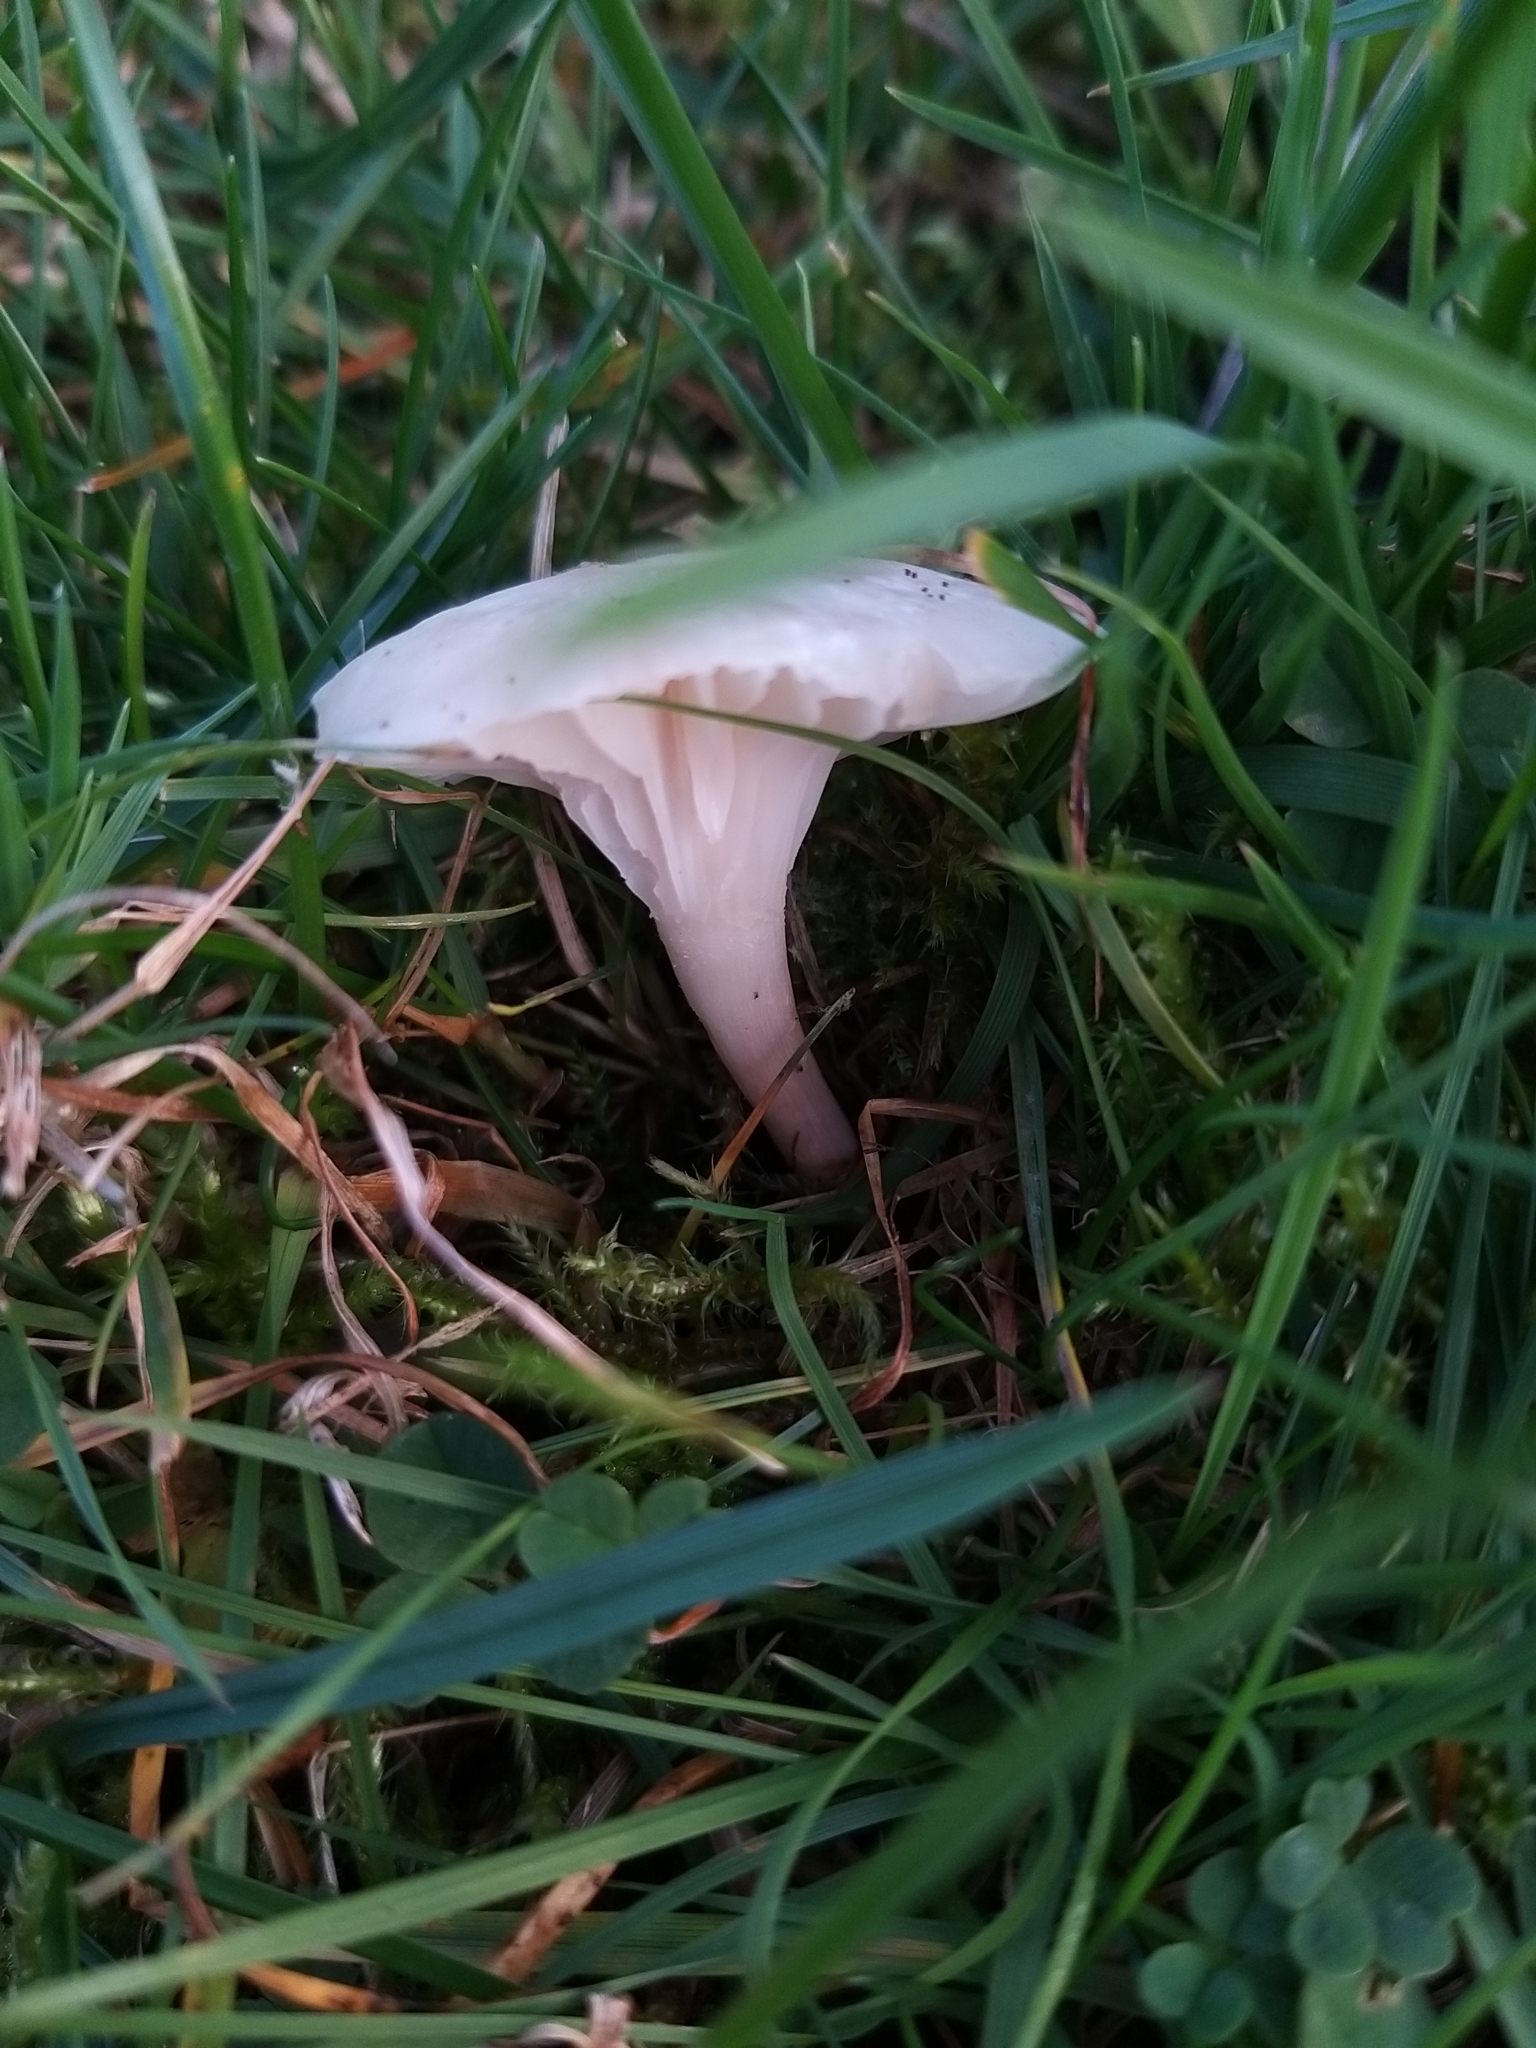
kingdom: Fungi
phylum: Basidiomycota
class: Agaricomycetes
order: Agaricales
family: Hygrophoraceae
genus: Cuphophyllus
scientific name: Cuphophyllus virgineus
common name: Snowy waxcap
